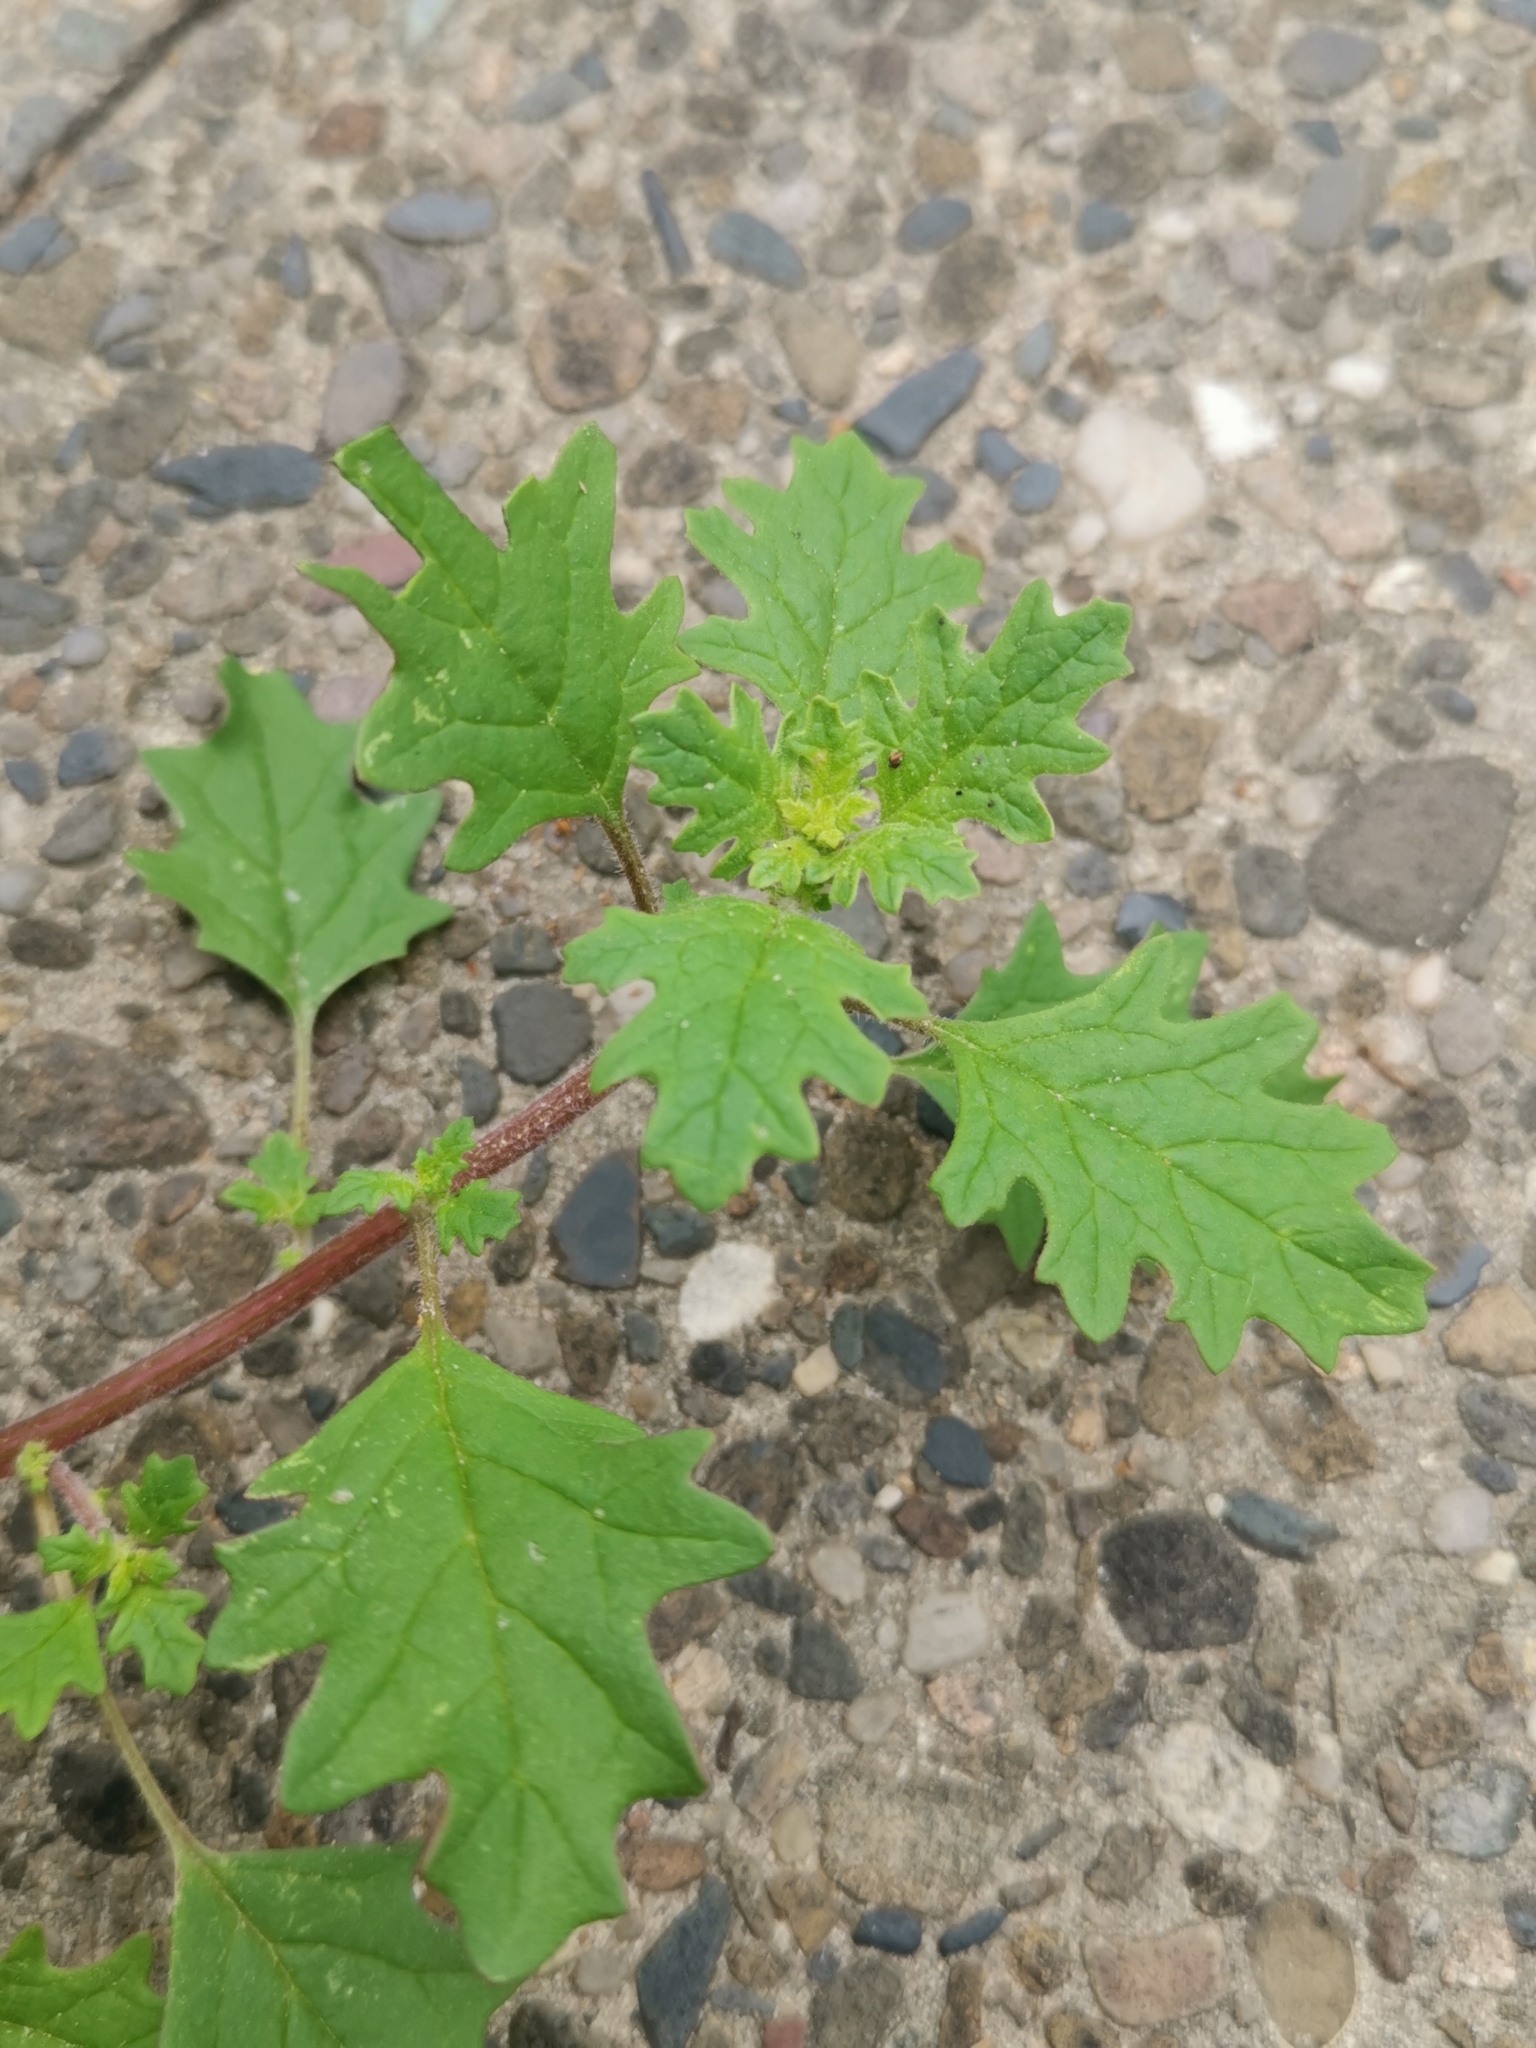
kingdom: Plantae
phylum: Tracheophyta
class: Magnoliopsida
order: Caryophyllales
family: Amaranthaceae
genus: Dysphania
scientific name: Dysphania pumilio
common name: Clammy goosefoot
